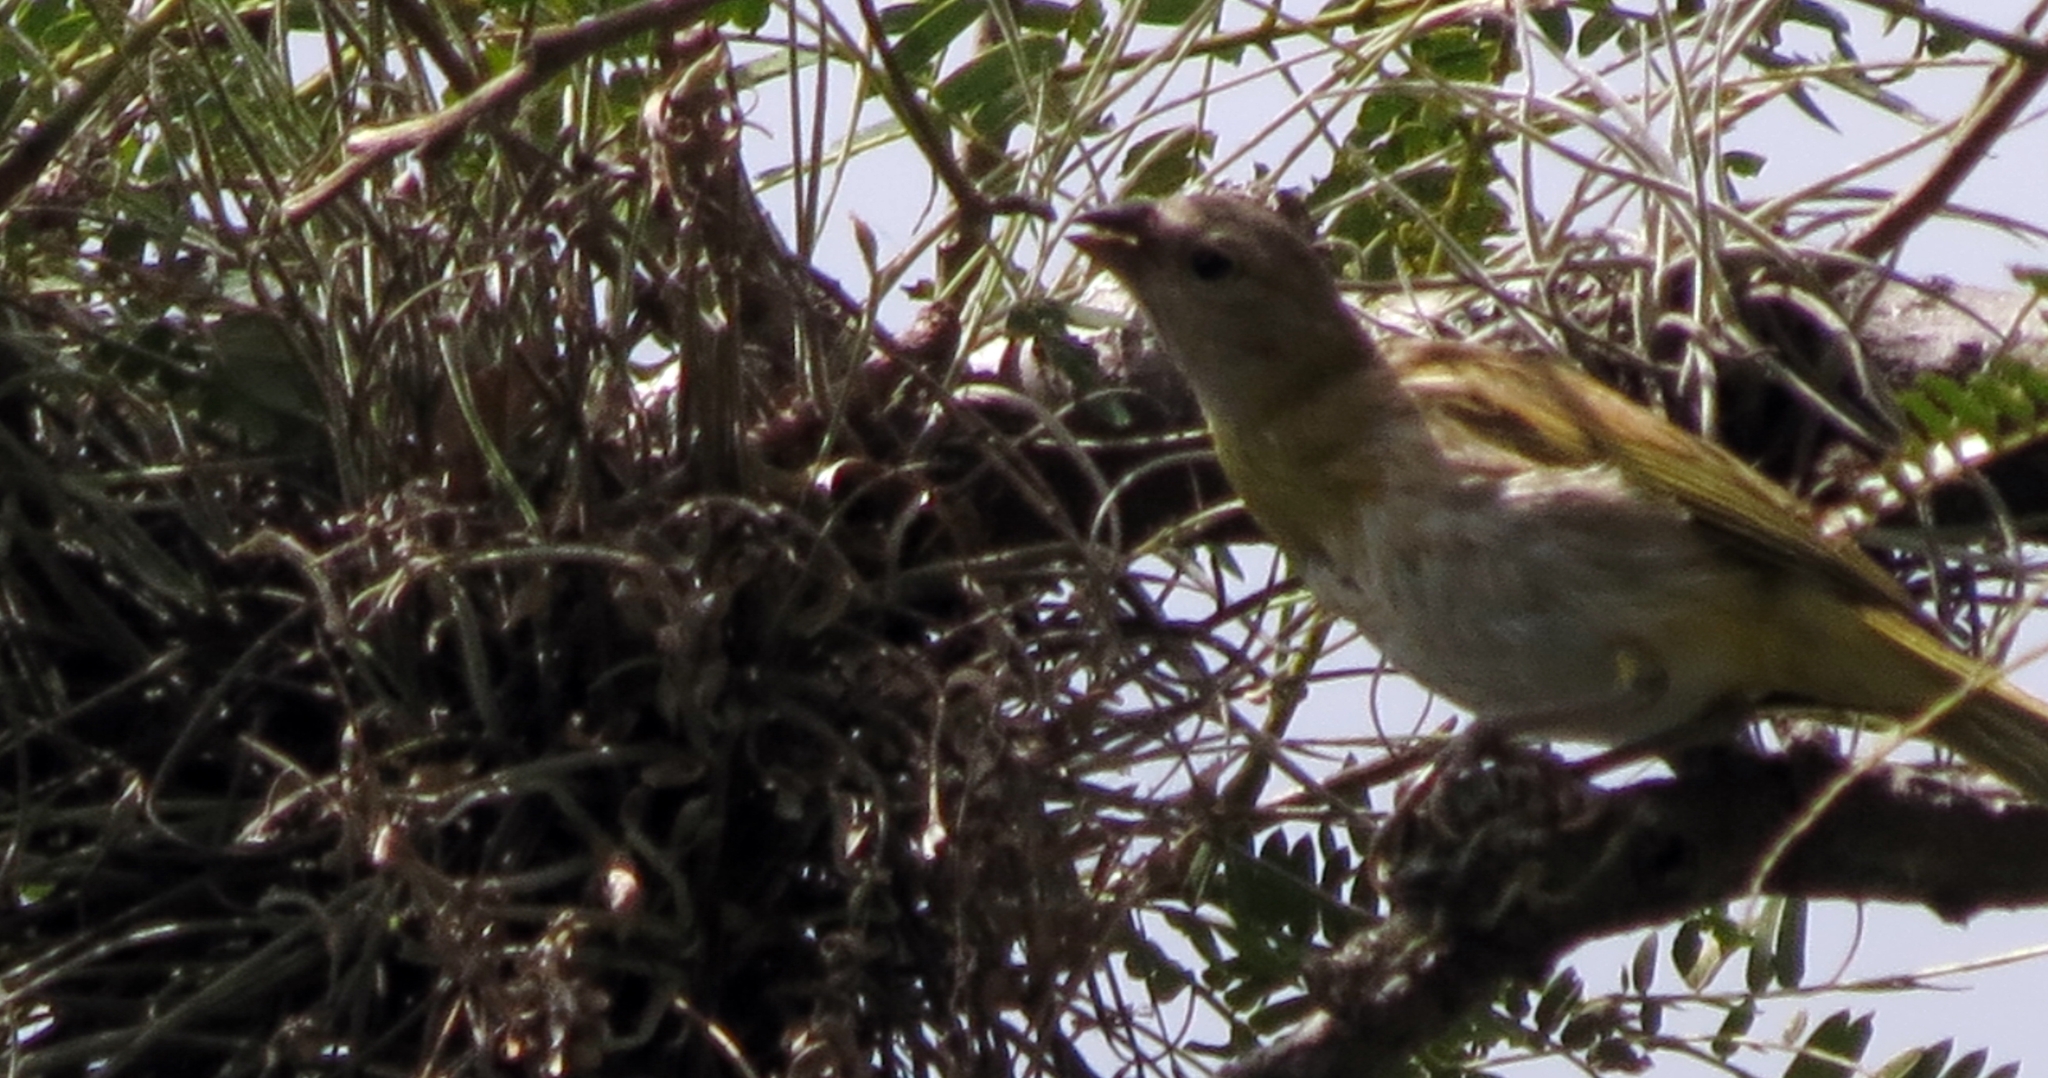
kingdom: Animalia
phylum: Chordata
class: Aves
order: Passeriformes
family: Thraupidae
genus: Sicalis
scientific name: Sicalis flaveola
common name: Saffron finch
